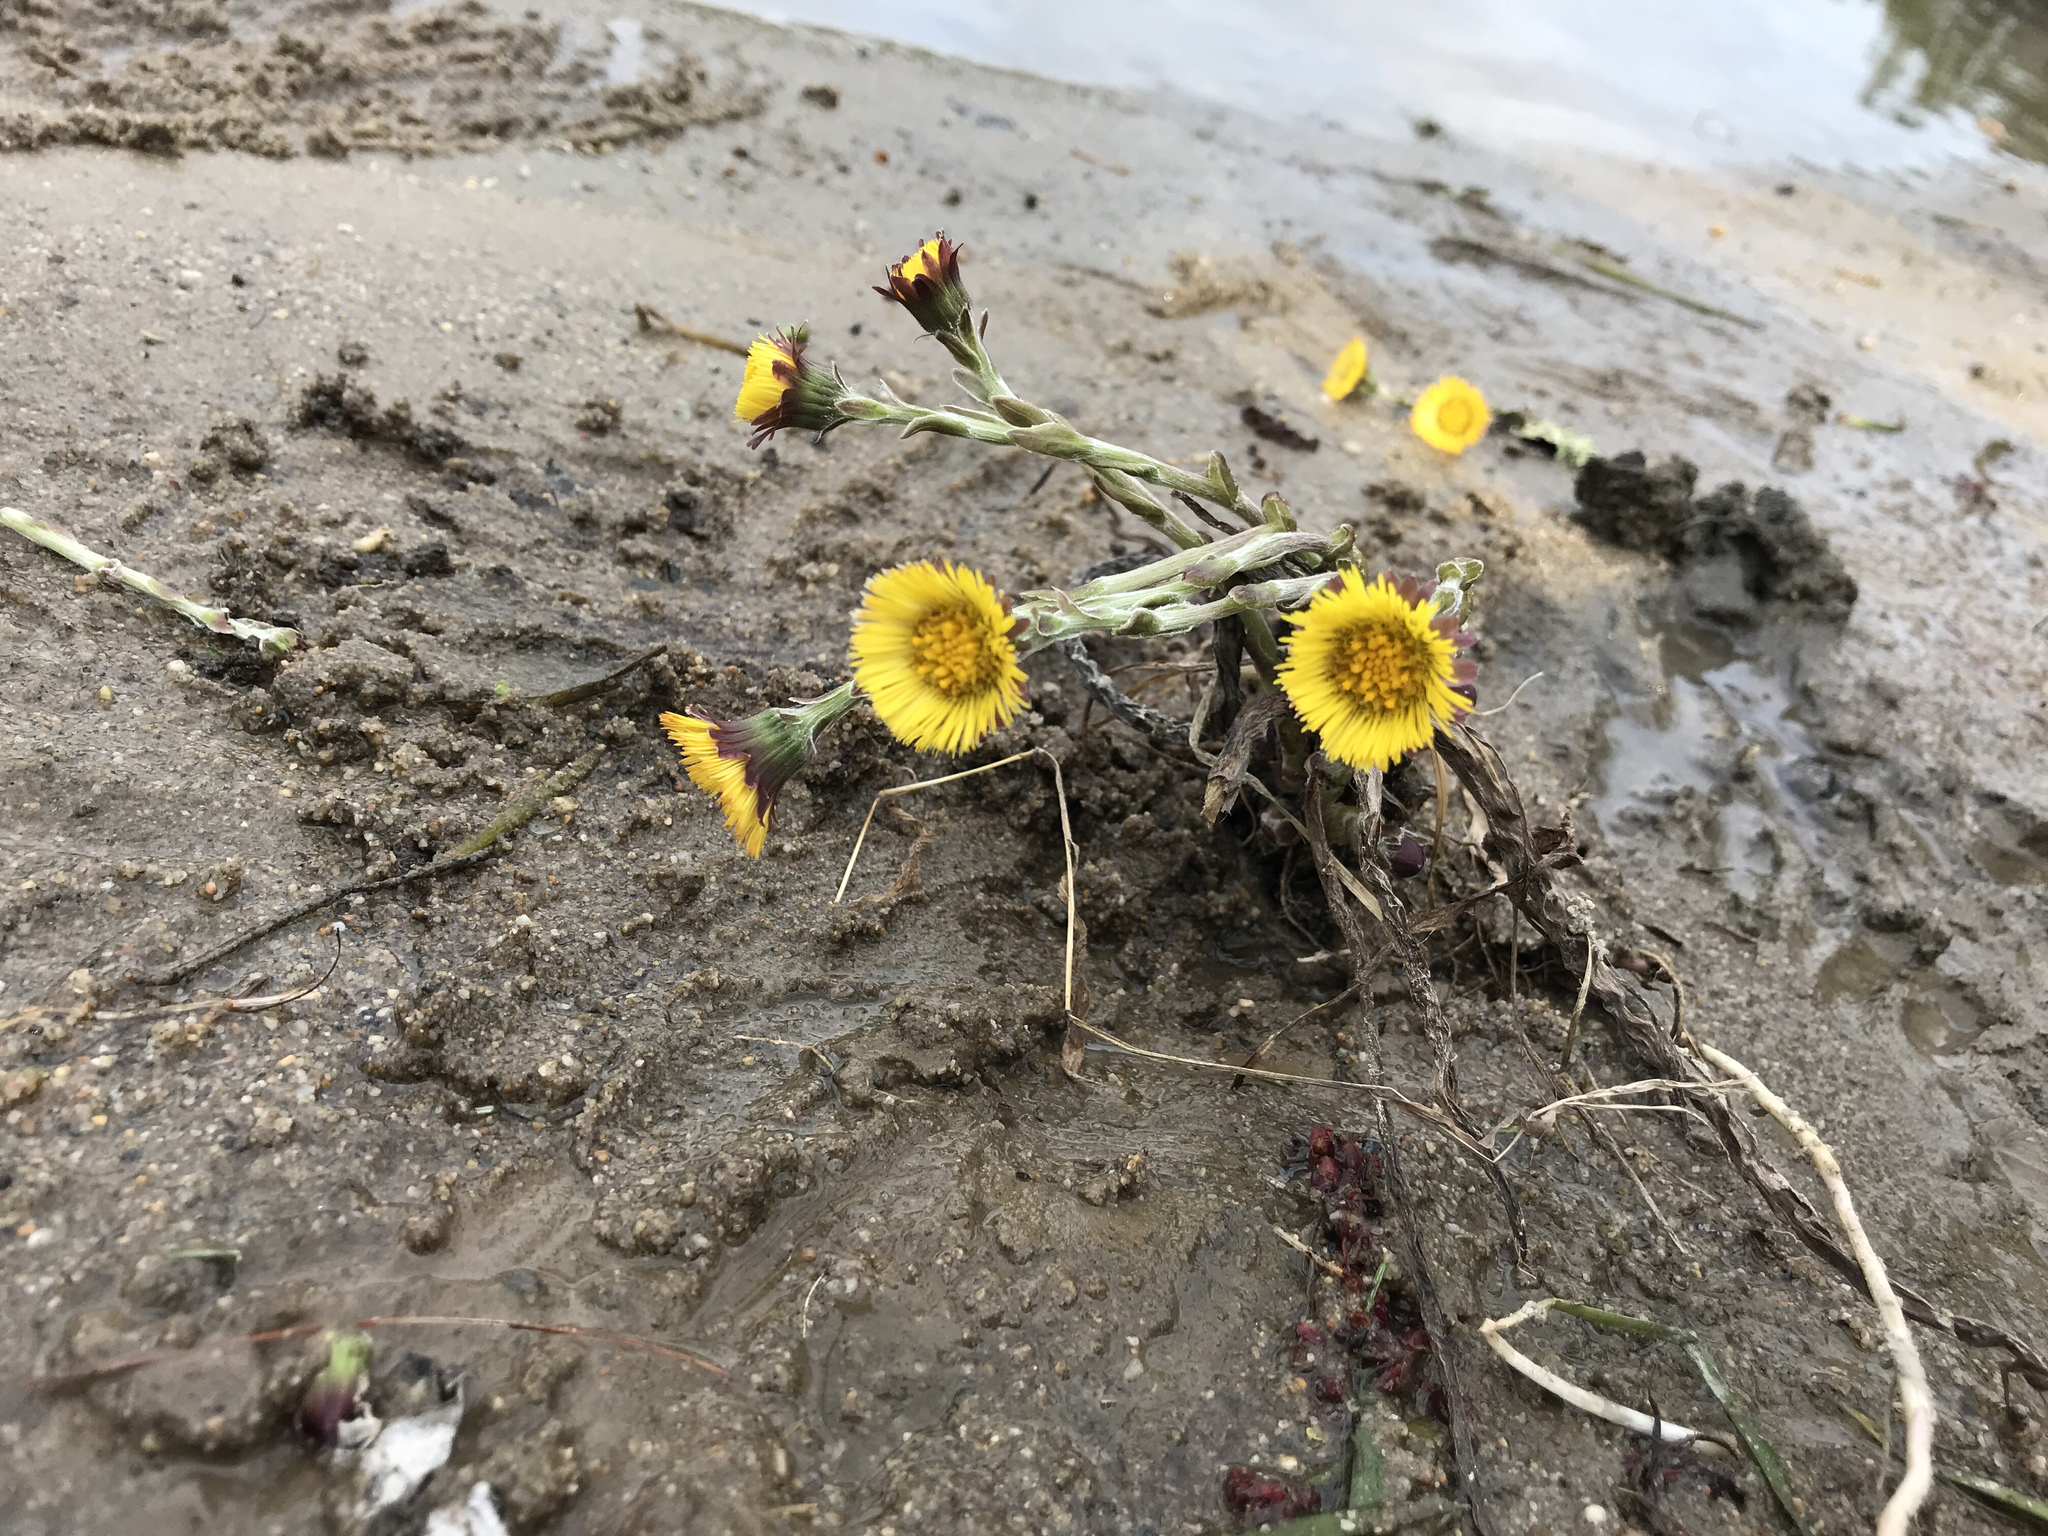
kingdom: Plantae
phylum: Tracheophyta
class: Magnoliopsida
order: Asterales
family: Asteraceae
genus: Tussilago
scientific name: Tussilago farfara
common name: Coltsfoot
